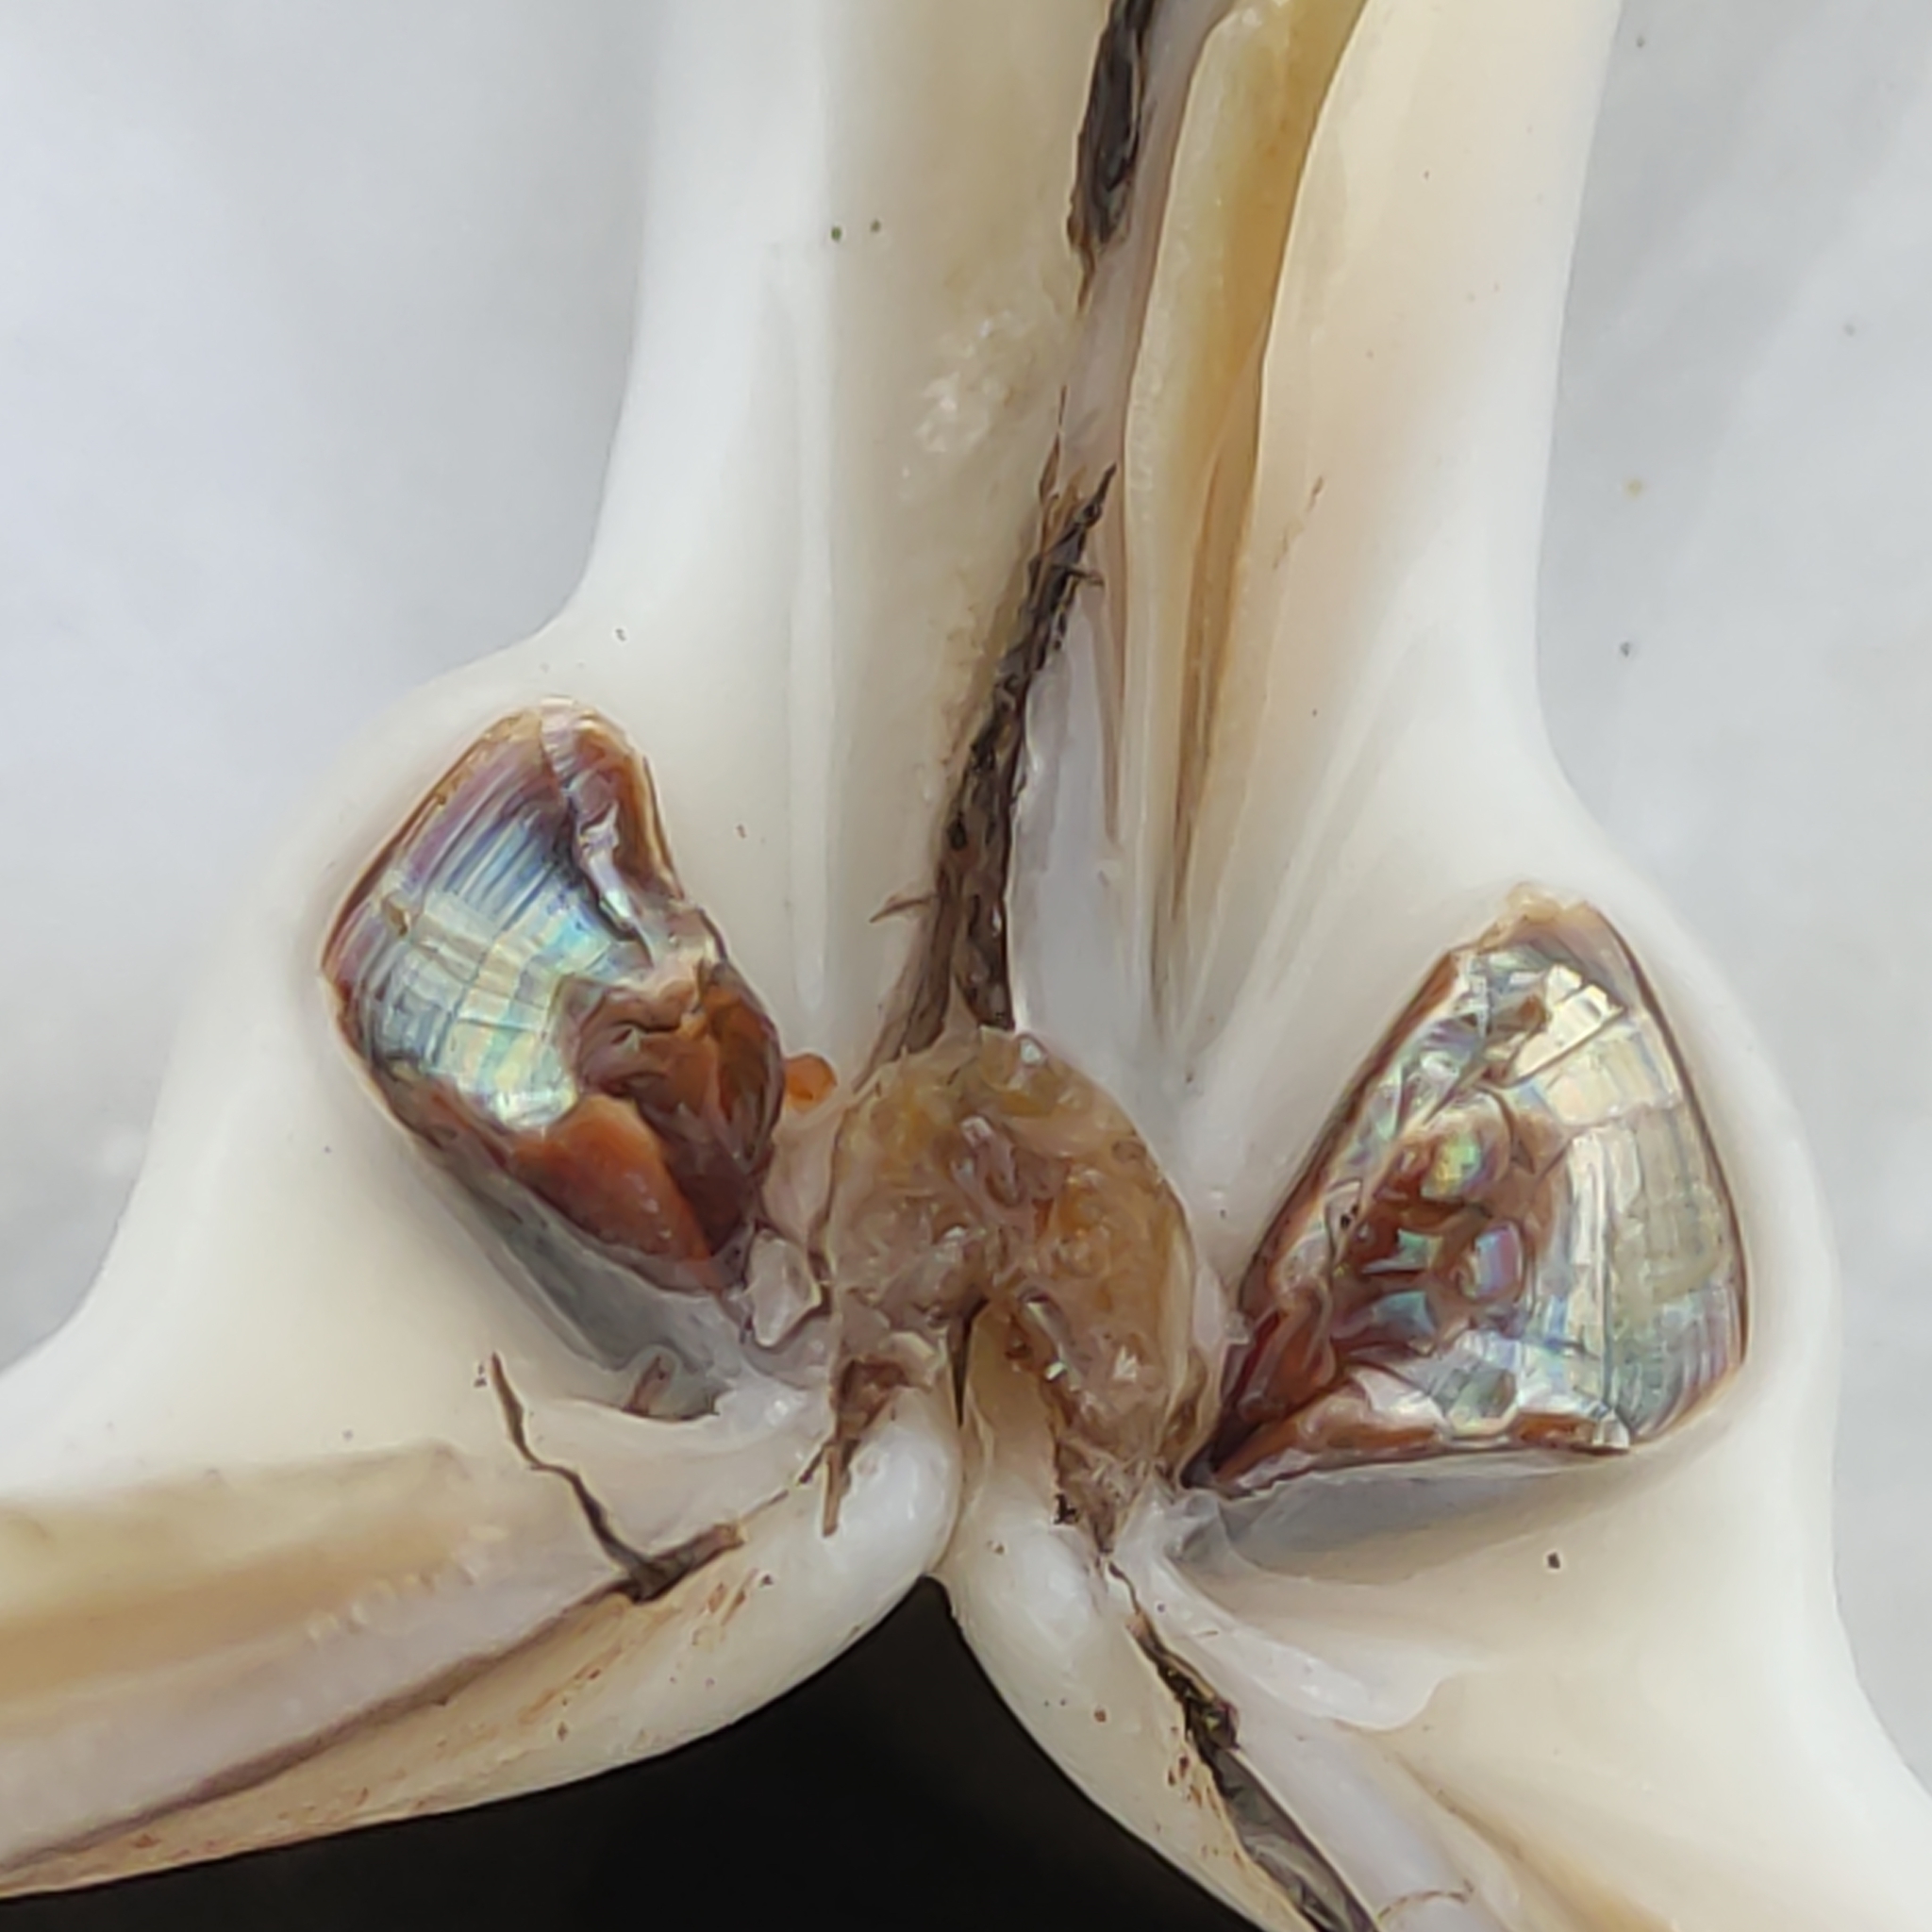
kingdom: Animalia
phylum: Mollusca
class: Bivalvia
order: Venerida
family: Mactridae
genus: Spisula
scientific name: Spisula murchisoni
